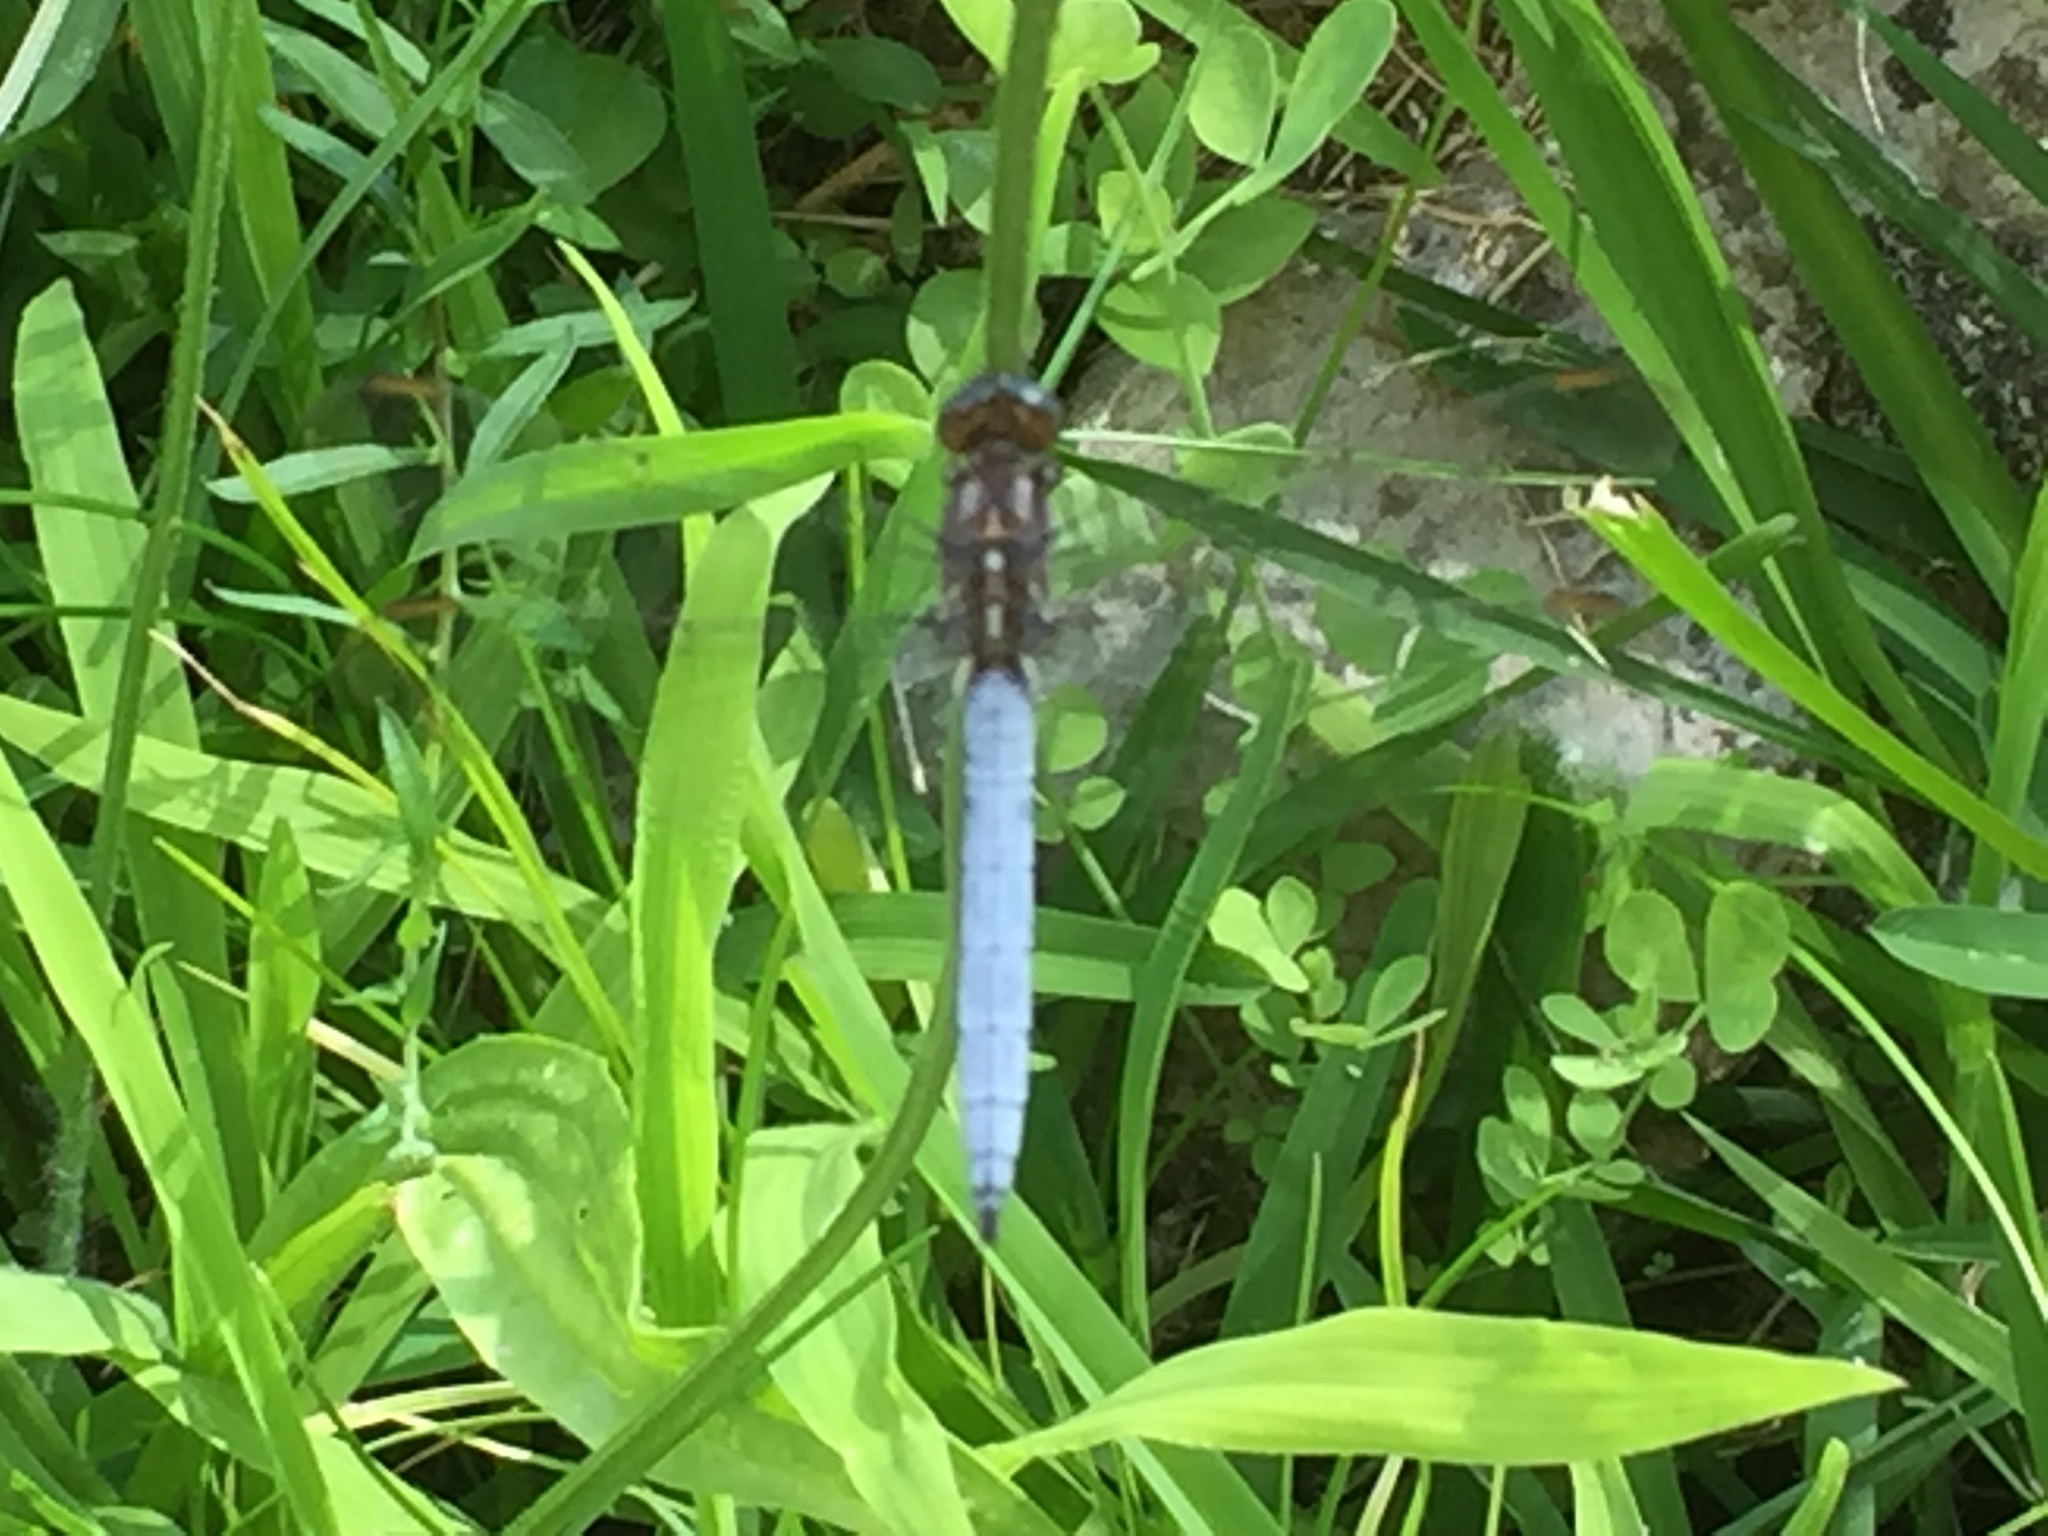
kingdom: Animalia
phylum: Arthropoda
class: Insecta
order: Odonata
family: Libellulidae
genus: Orthetrum
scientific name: Orthetrum coerulescens
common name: Keeled skimmer
